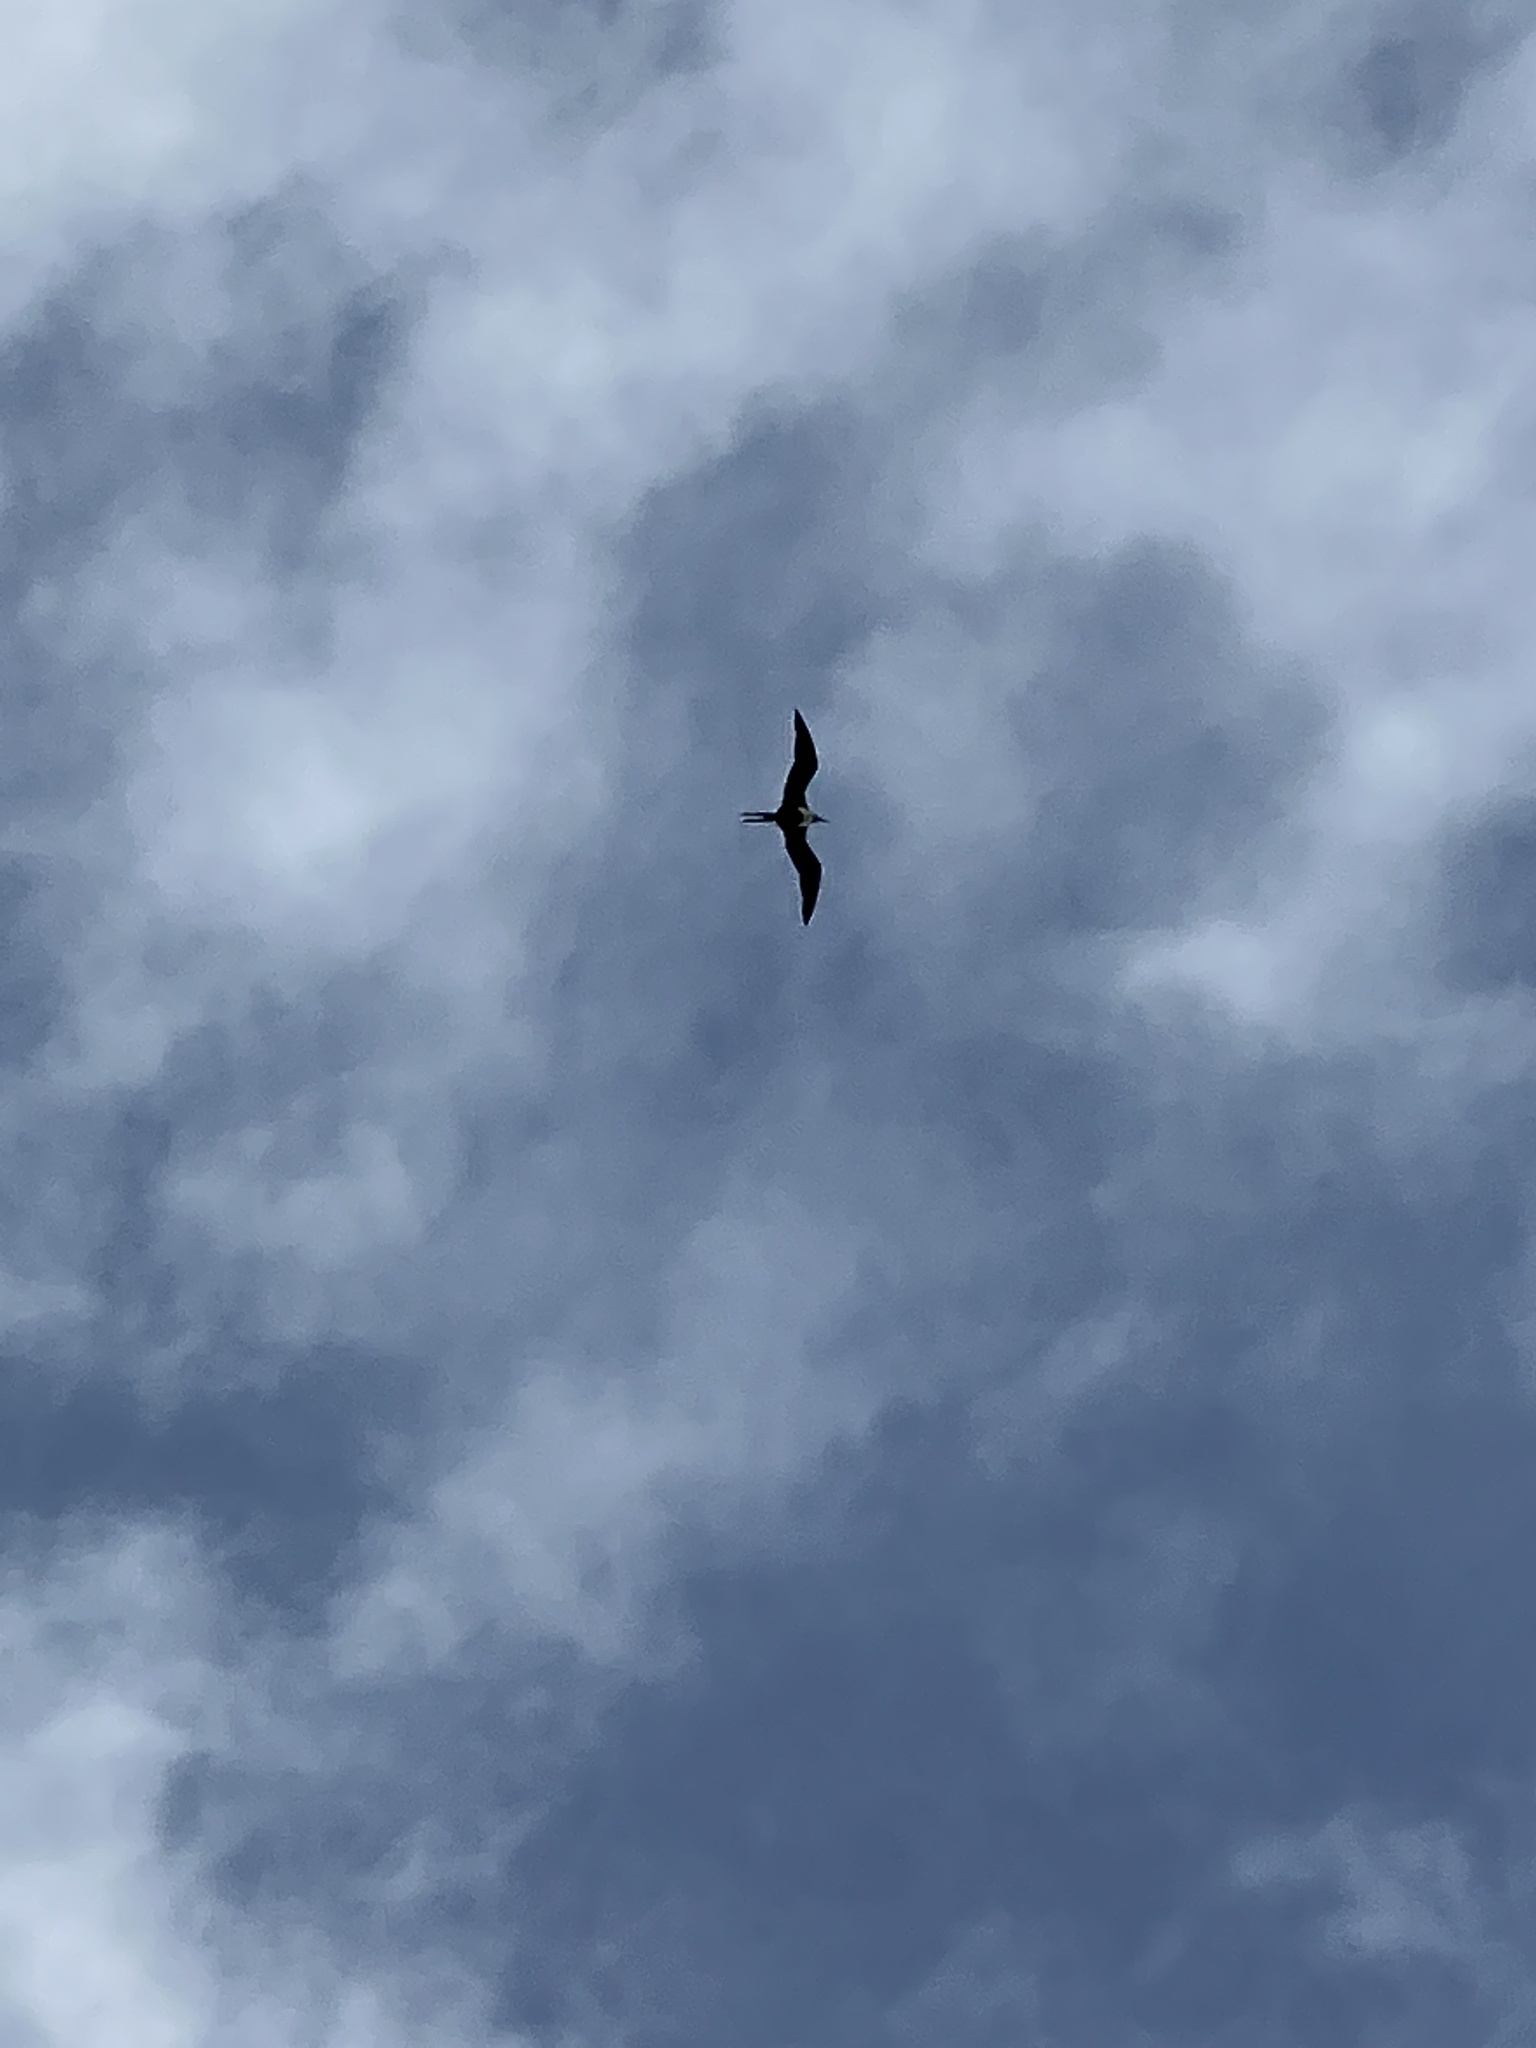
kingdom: Animalia
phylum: Chordata
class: Aves
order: Suliformes
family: Fregatidae
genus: Fregata
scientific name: Fregata minor
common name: Great frigatebird
